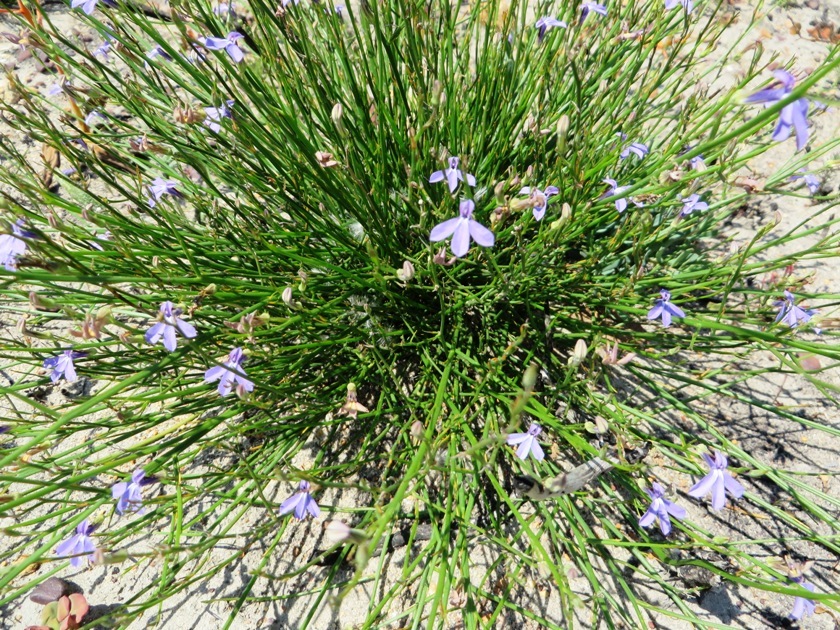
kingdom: Plantae
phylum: Tracheophyta
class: Magnoliopsida
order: Asterales
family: Campanulaceae
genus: Lobelia
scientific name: Lobelia linearis
